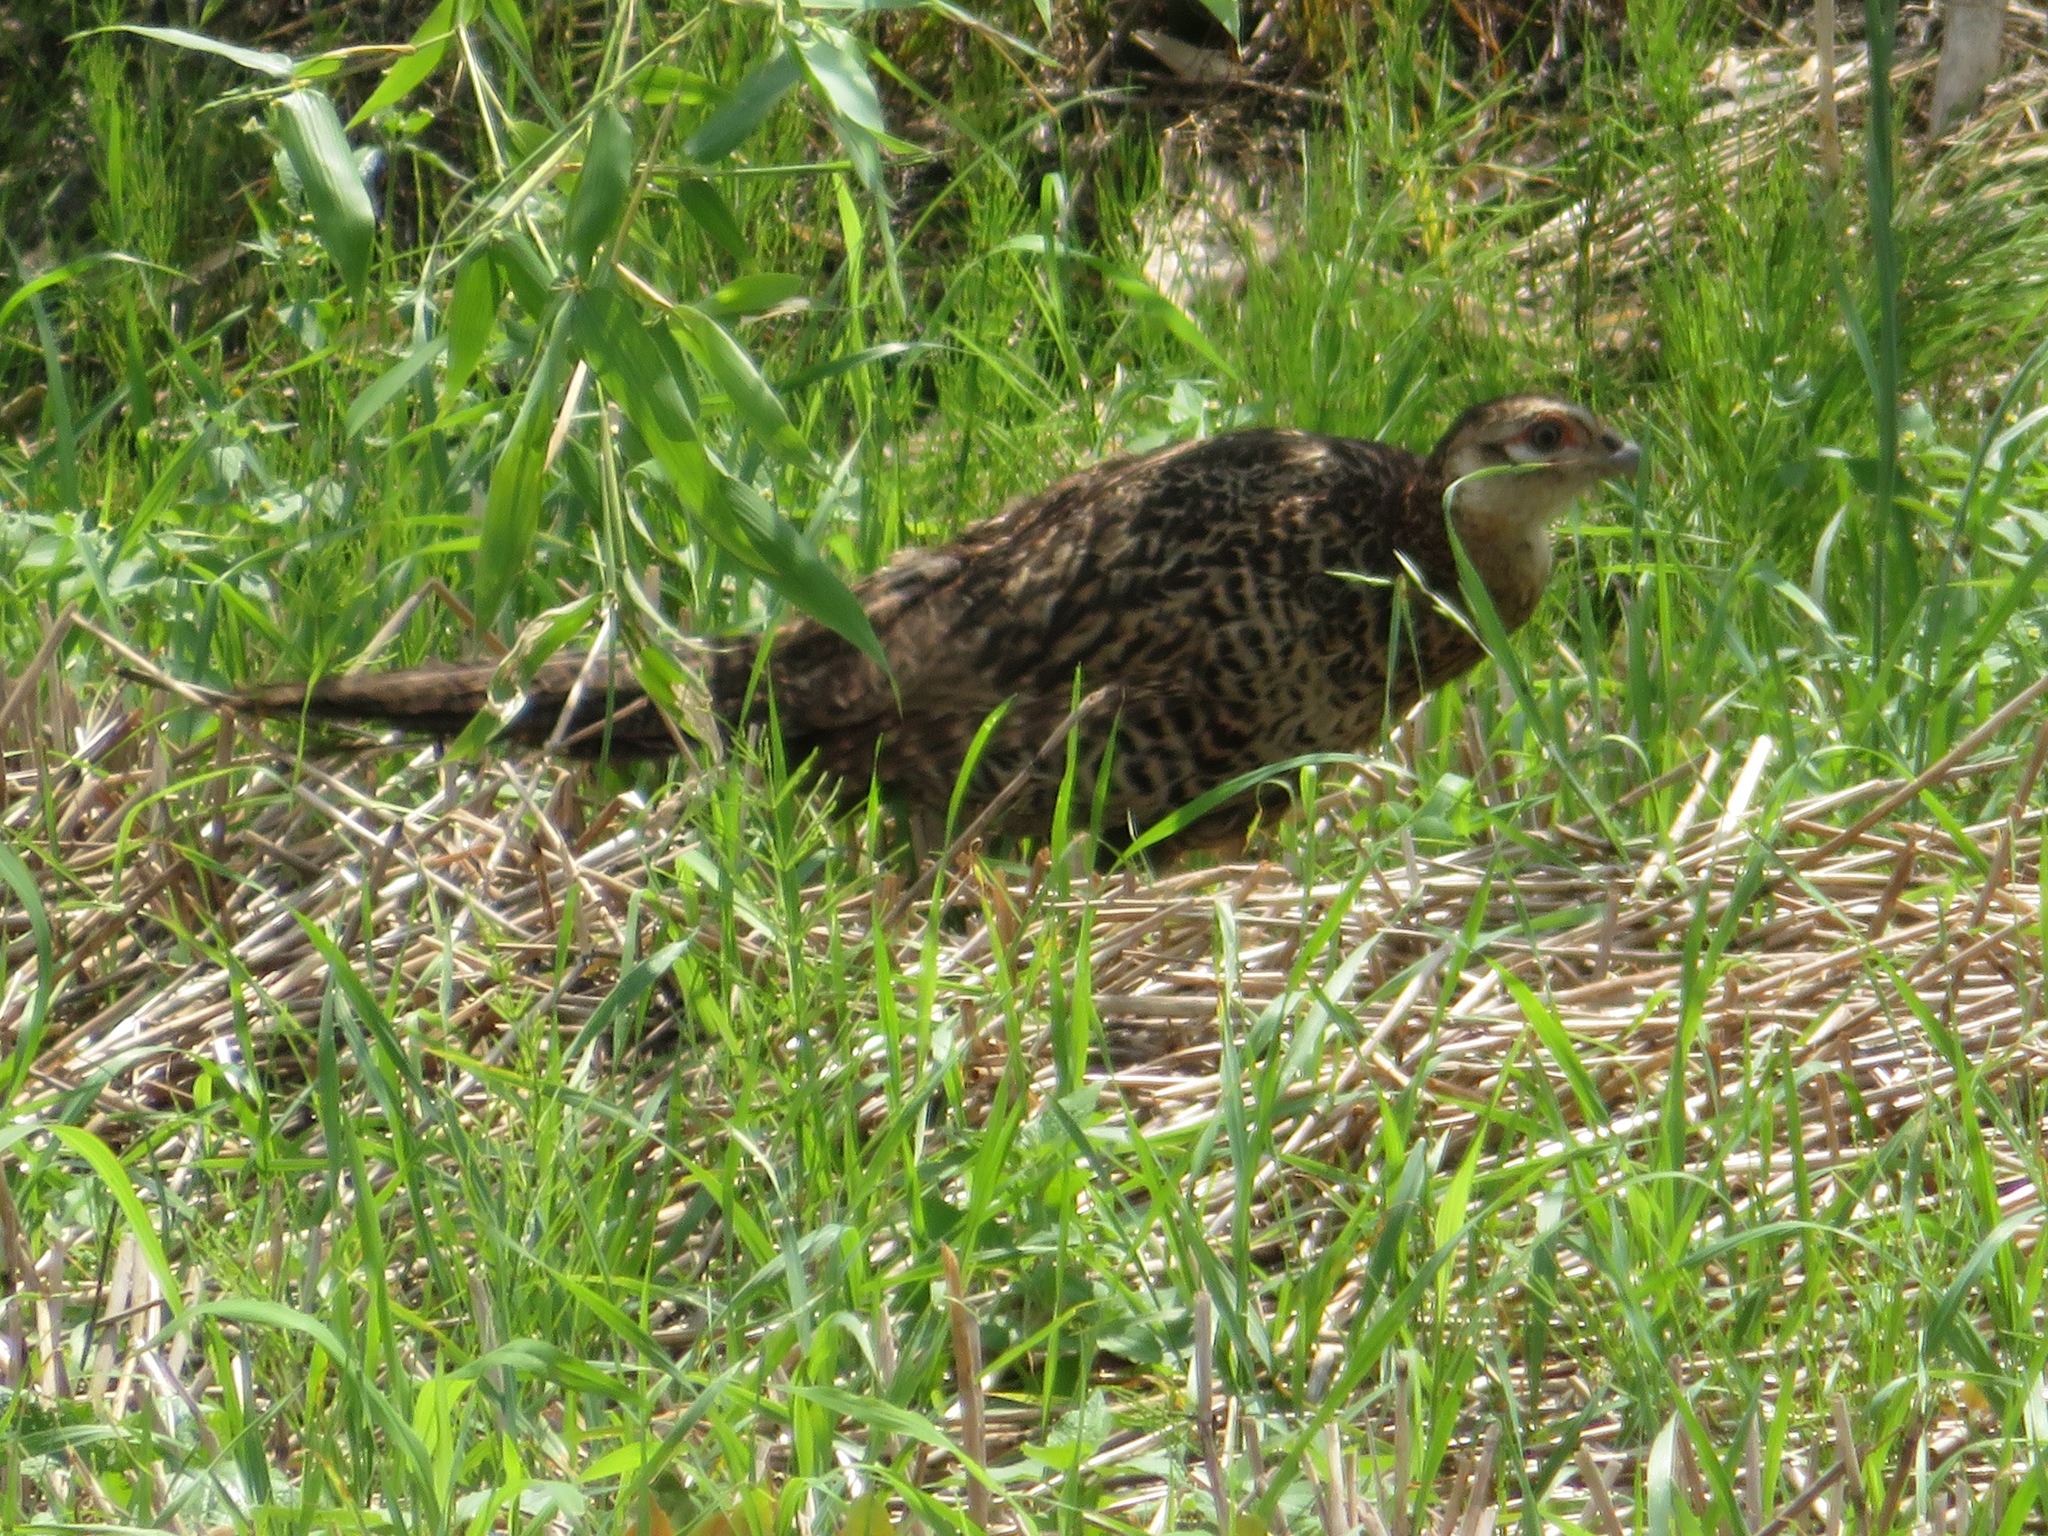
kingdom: Animalia
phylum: Chordata
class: Aves
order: Galliformes
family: Phasianidae
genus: Phasianus
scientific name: Phasianus versicolor
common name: Green pheasant
